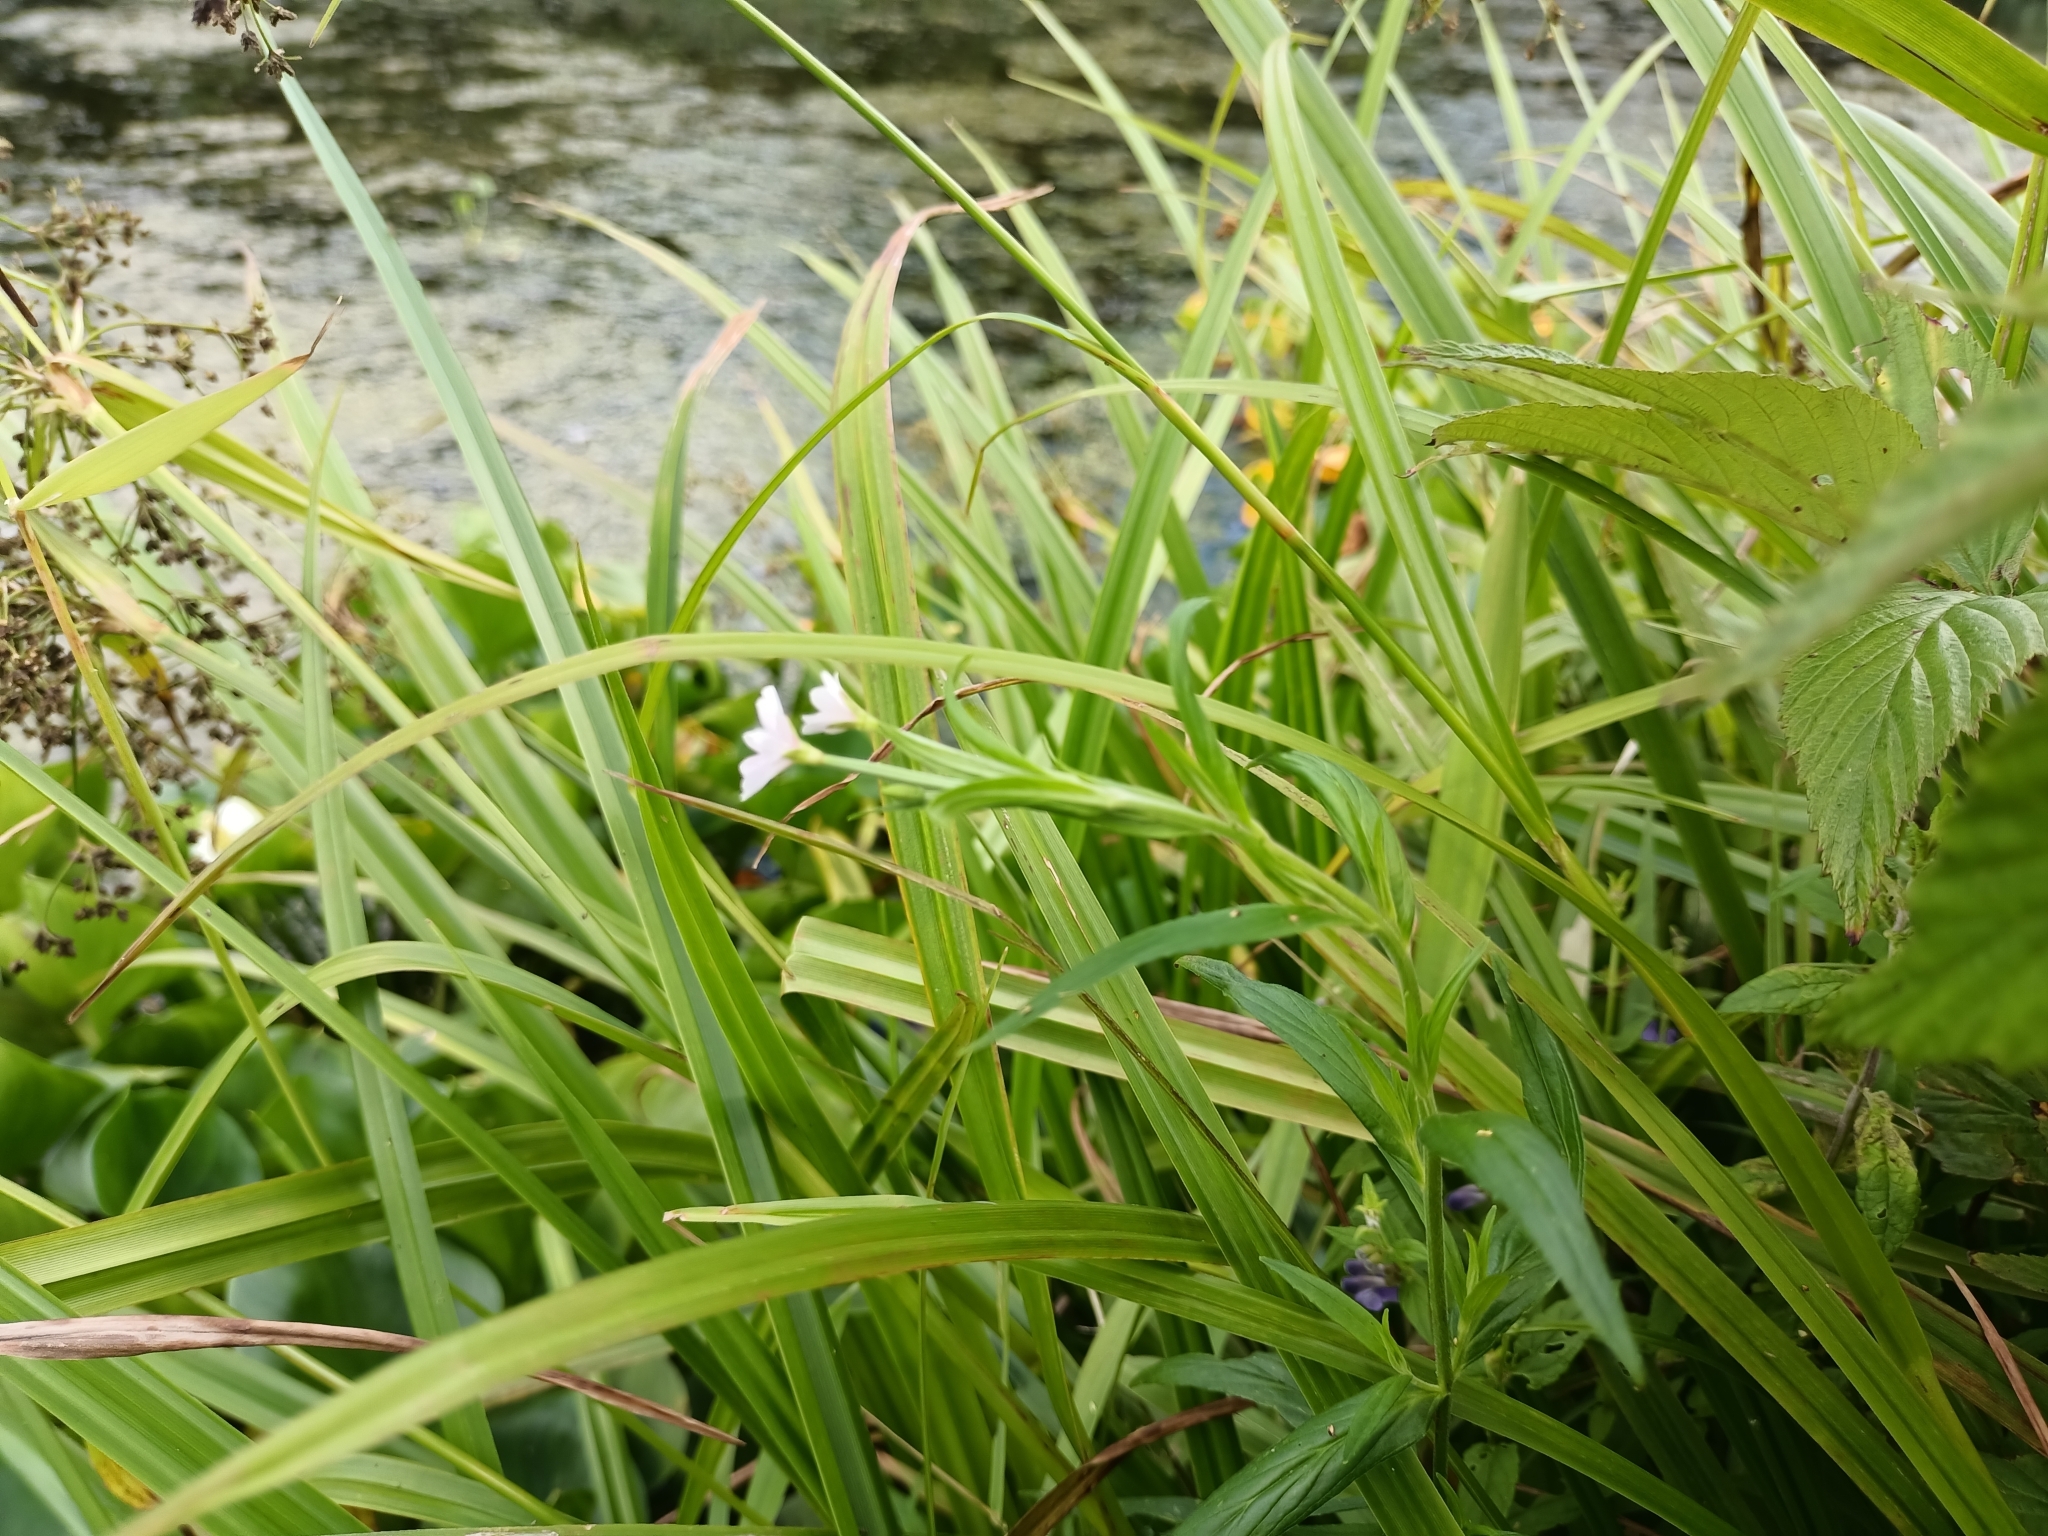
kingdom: Plantae
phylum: Tracheophyta
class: Magnoliopsida
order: Myrtales
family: Onagraceae
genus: Epilobium
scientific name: Epilobium palustre
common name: Marsh willowherb
